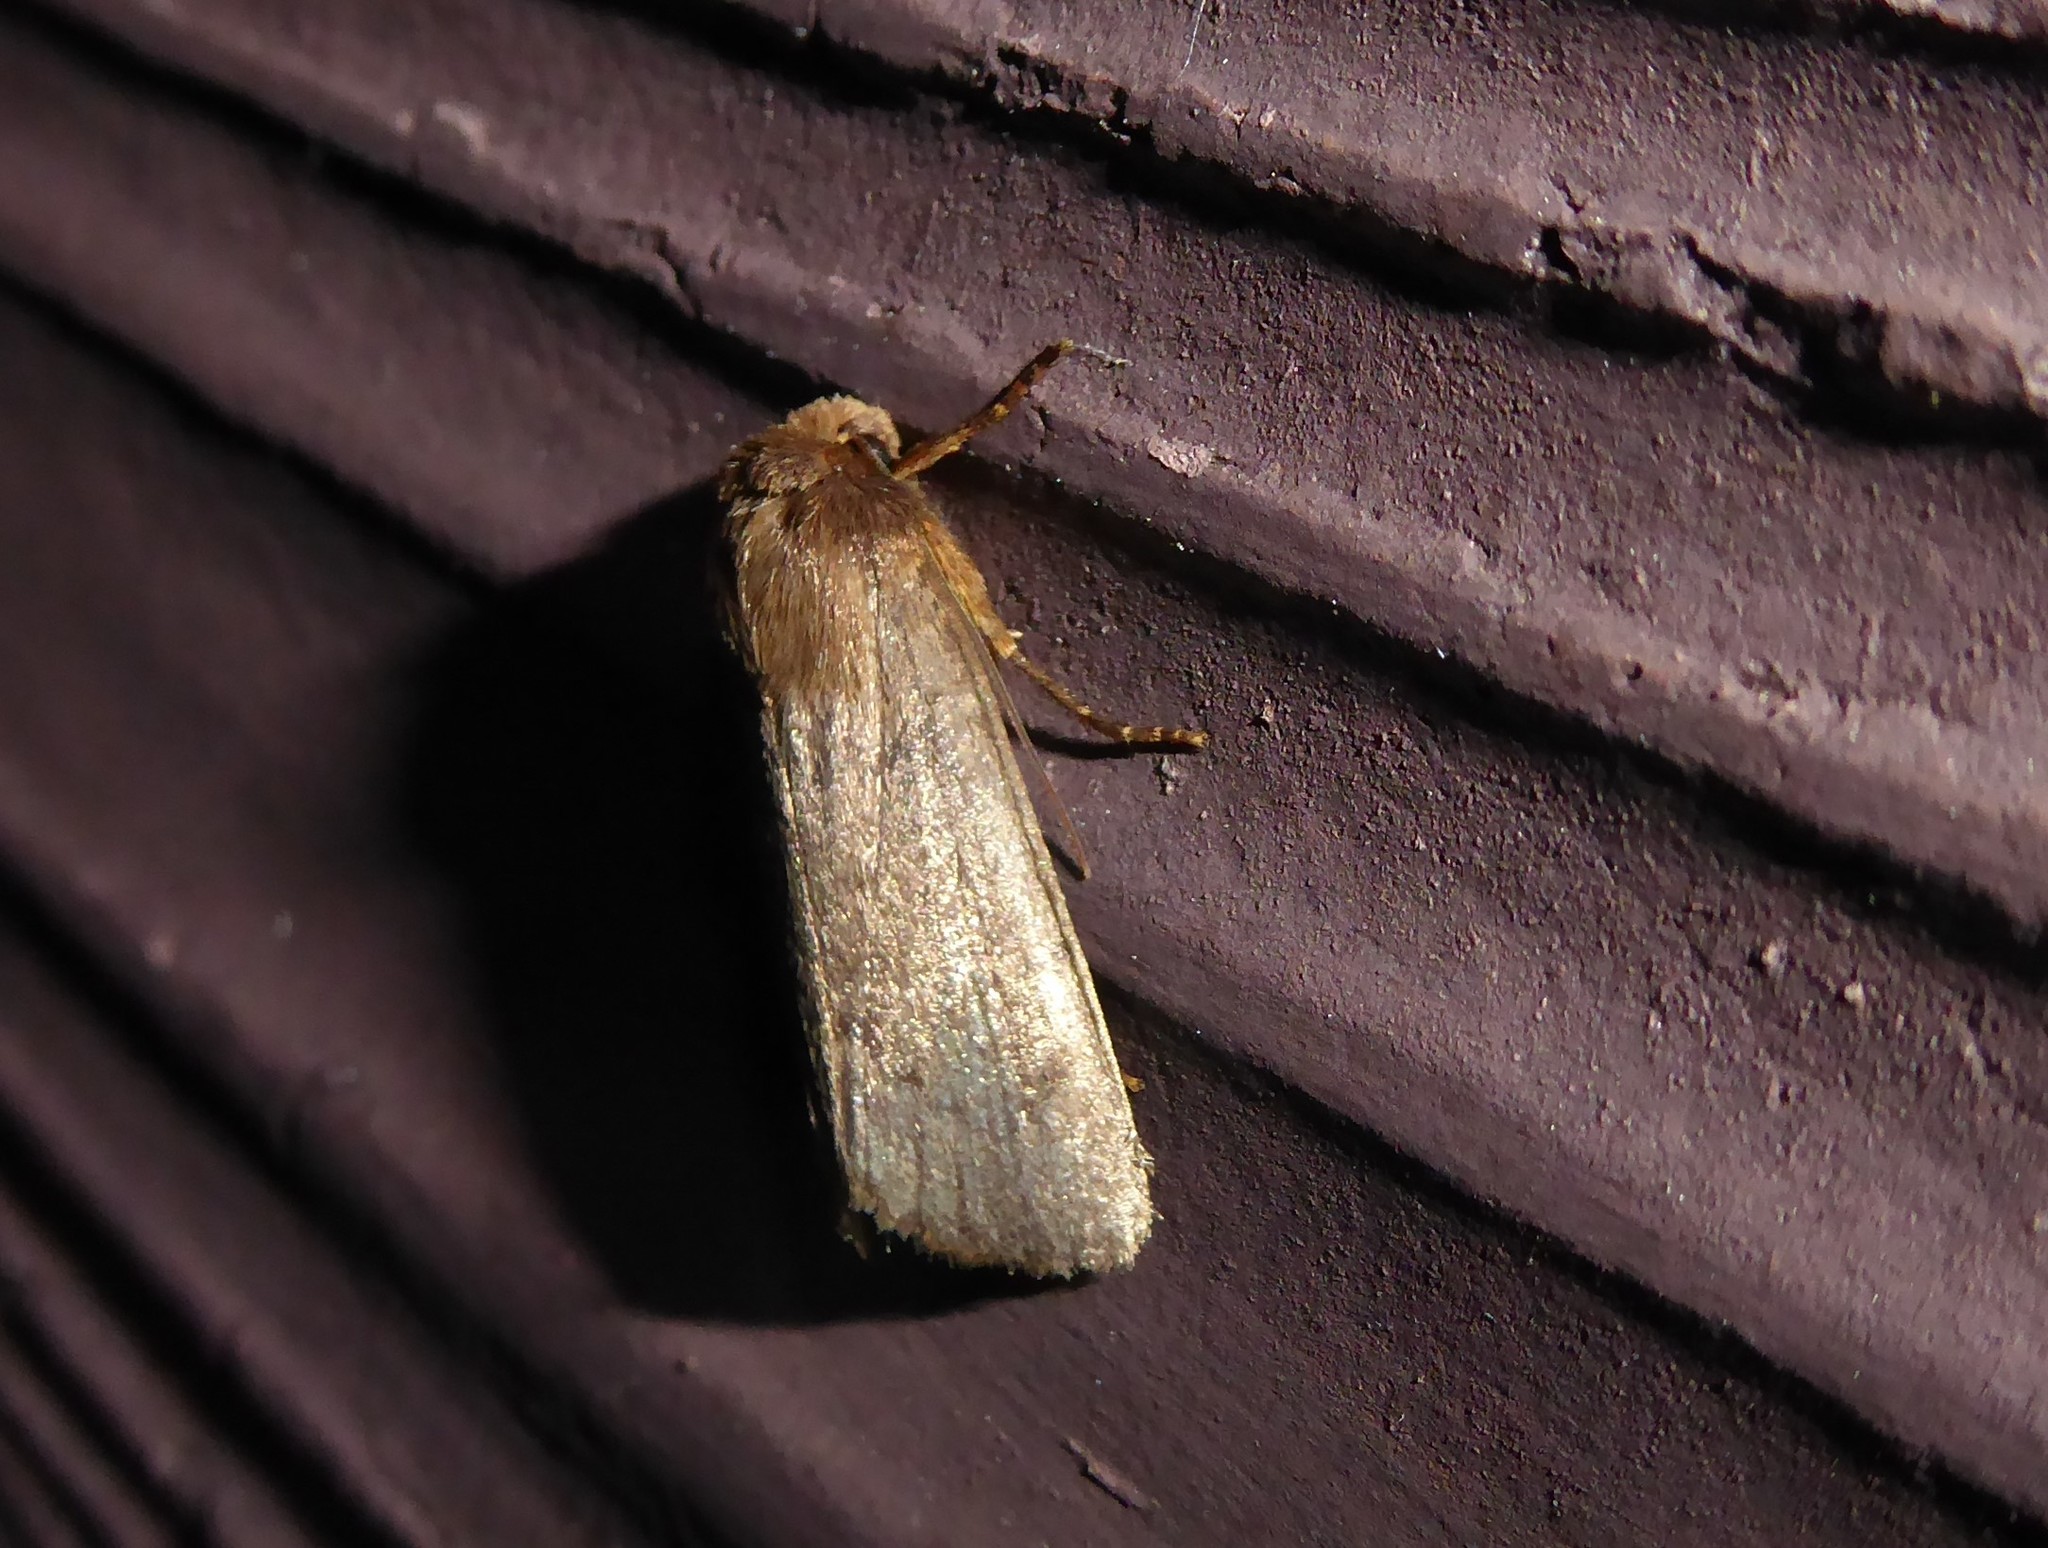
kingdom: Animalia
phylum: Arthropoda
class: Insecta
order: Lepidoptera
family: Noctuidae
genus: Bityla
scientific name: Bityla defigurata
